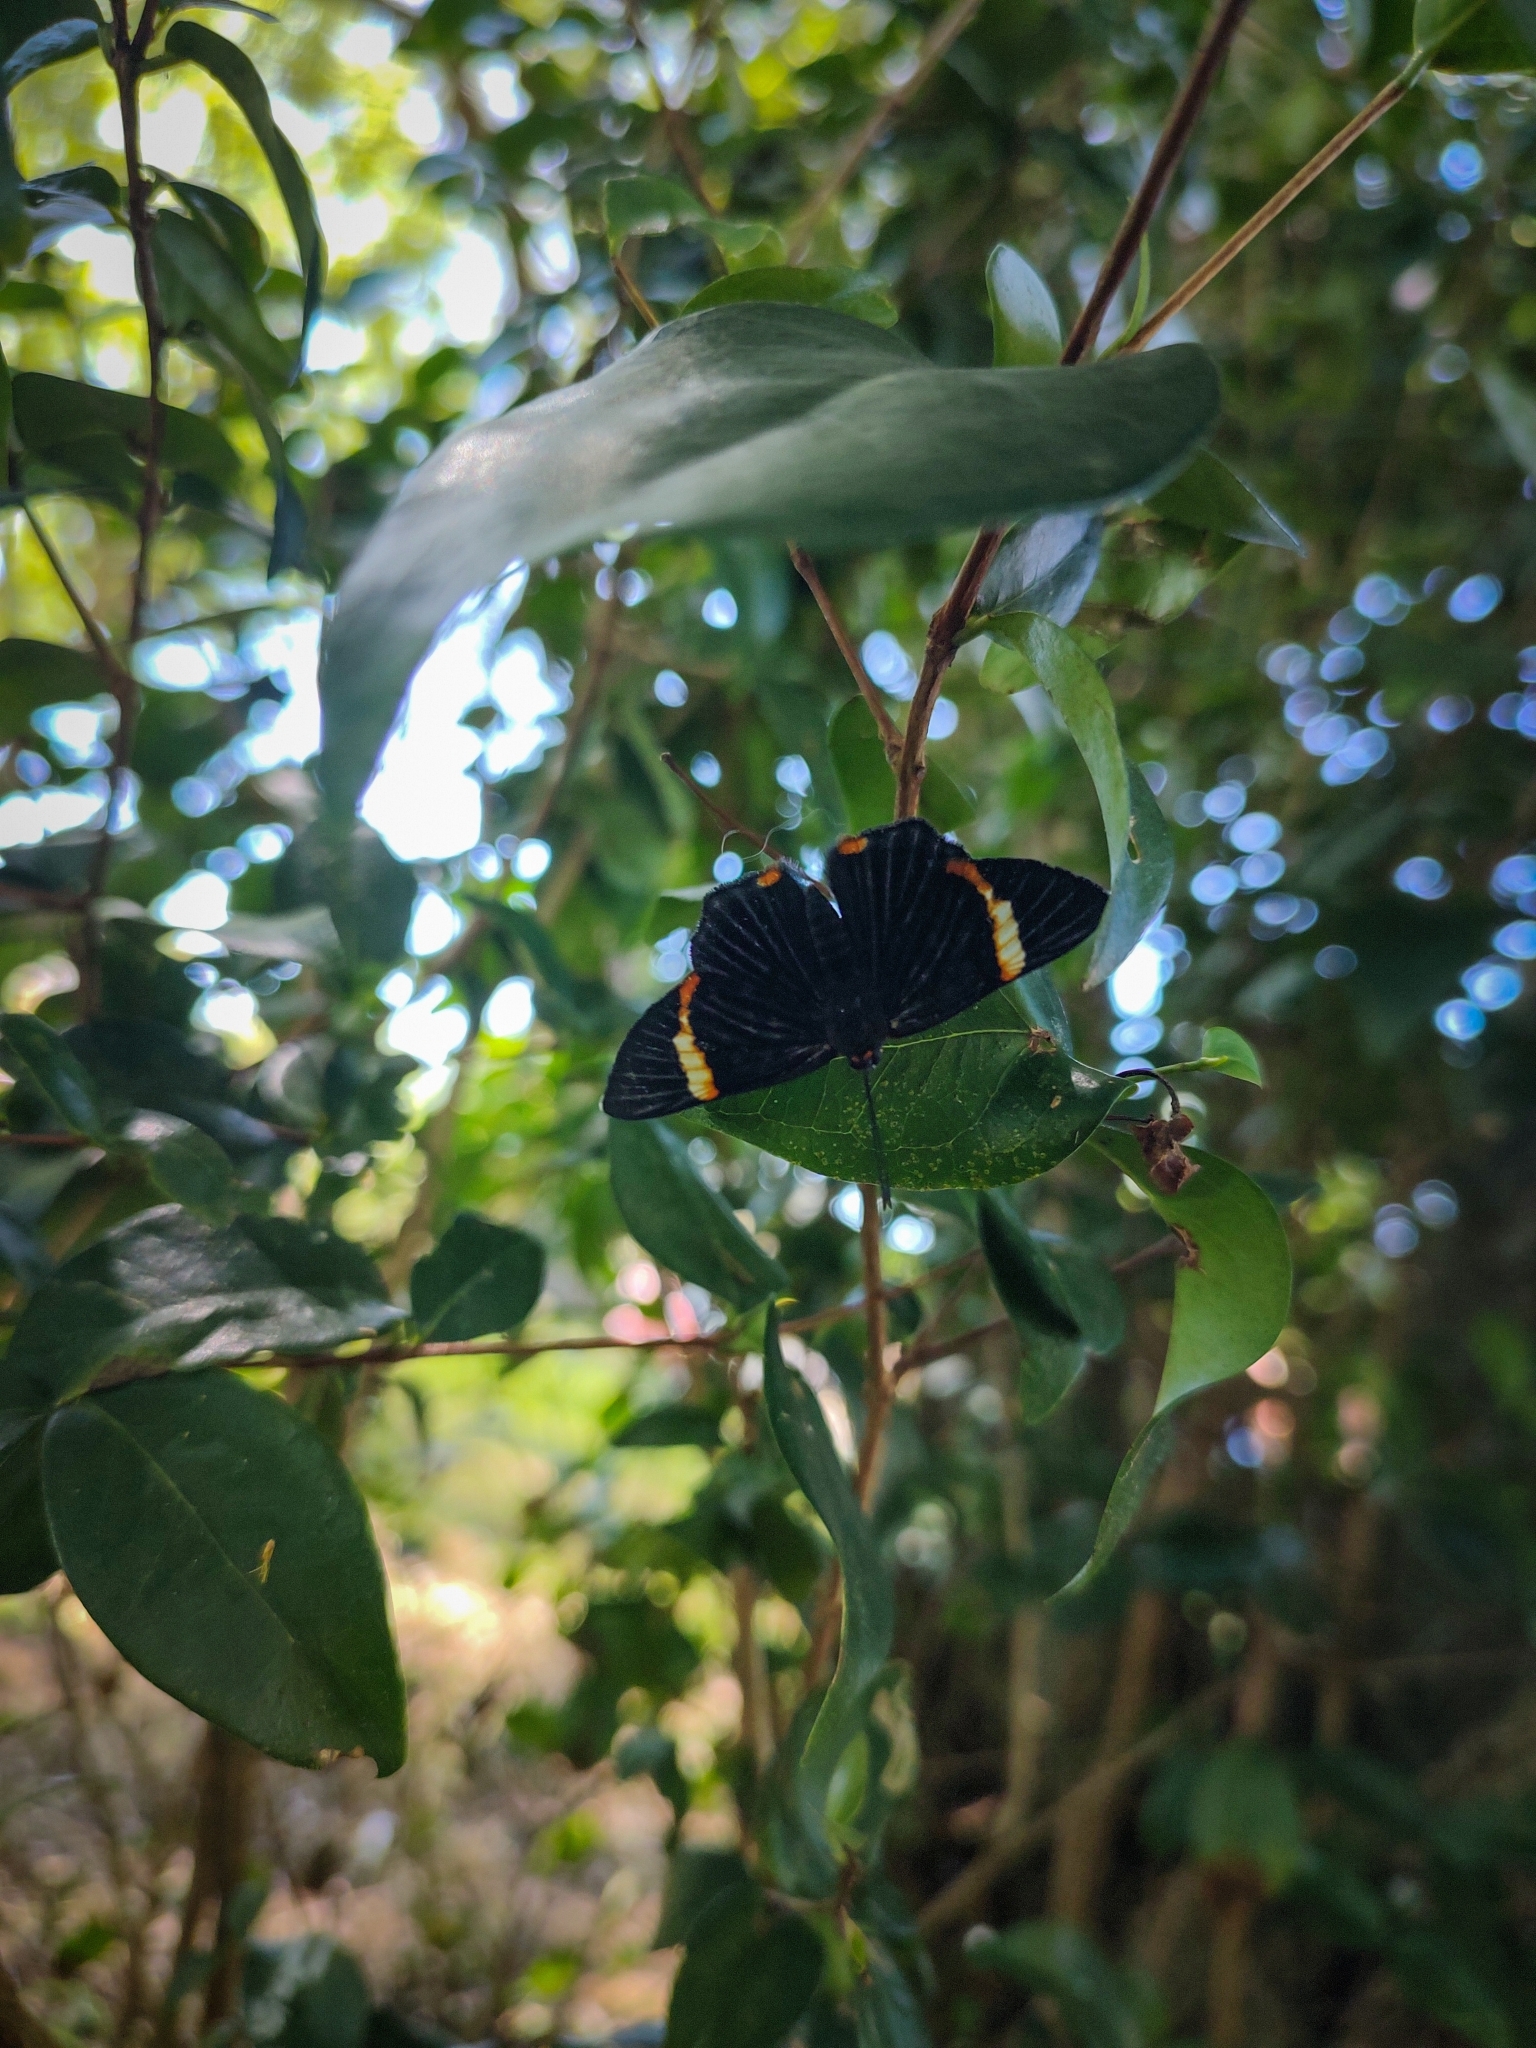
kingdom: Animalia
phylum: Arthropoda
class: Insecta
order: Lepidoptera
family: Riodinidae
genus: Riodina
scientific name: Riodina lycisca
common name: Lycisca metalmark
